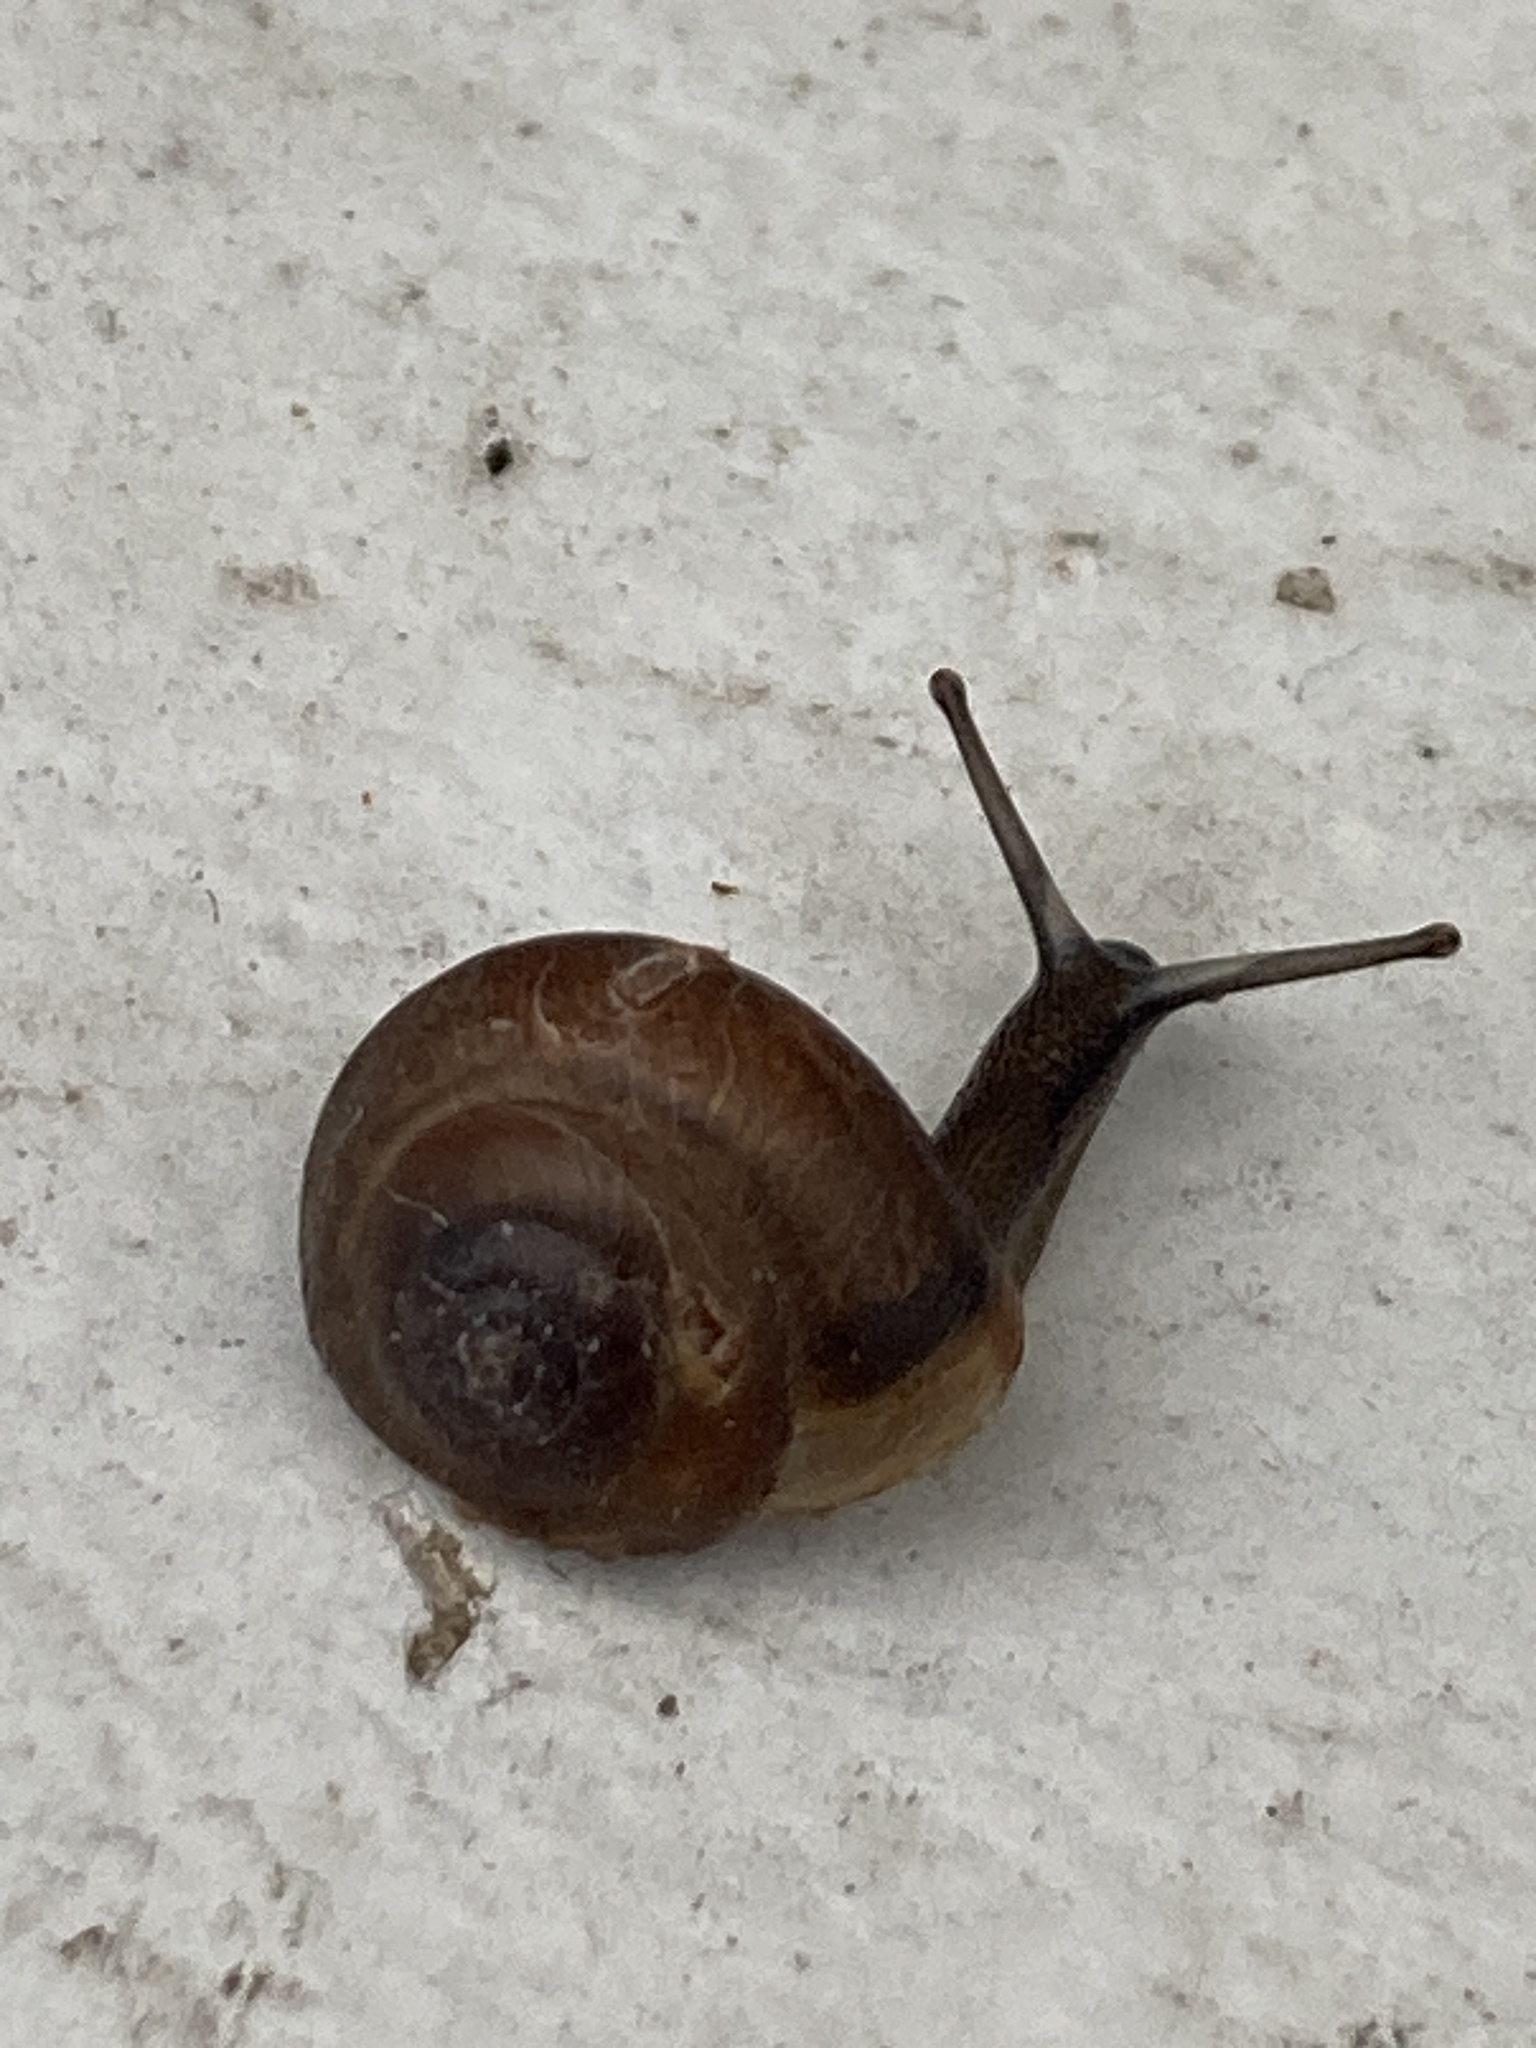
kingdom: Animalia
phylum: Mollusca
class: Gastropoda
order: Stylommatophora
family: Hygromiidae
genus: Trochulus
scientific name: Trochulus striolatus
